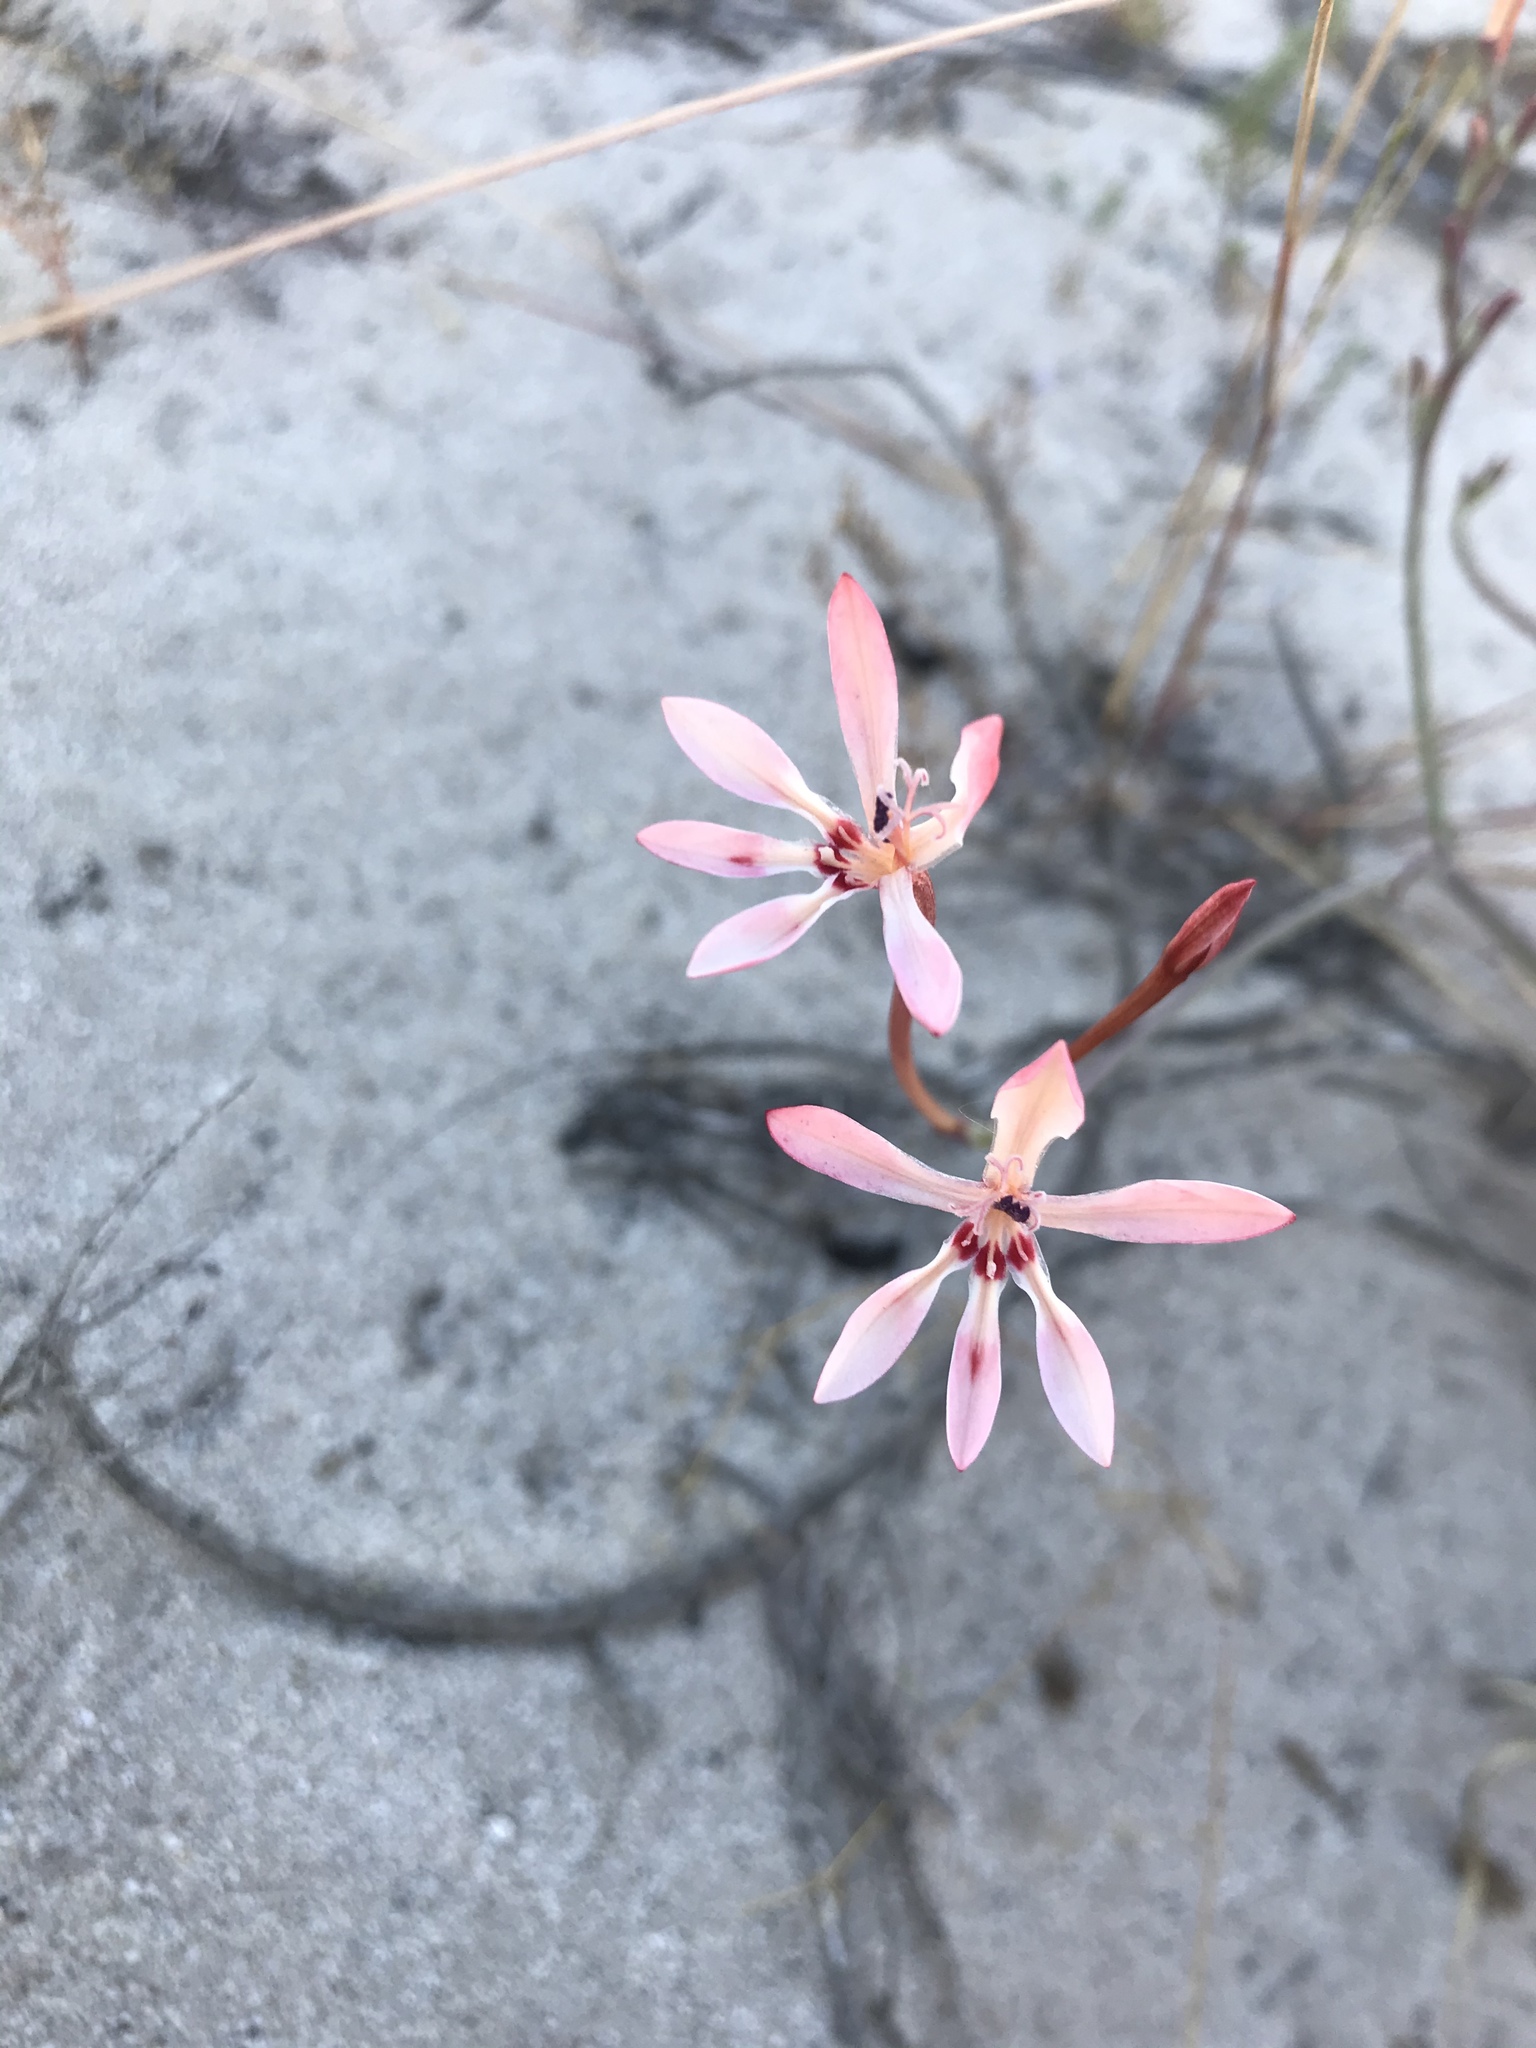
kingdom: Plantae
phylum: Tracheophyta
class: Liliopsida
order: Asparagales
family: Iridaceae
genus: Lapeirousia
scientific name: Lapeirousia anceps
